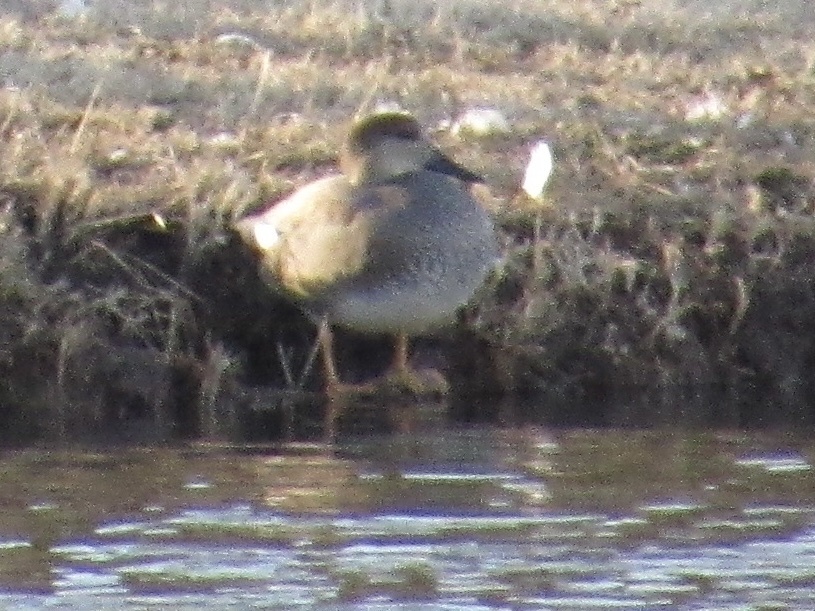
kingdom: Animalia
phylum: Chordata
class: Aves
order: Anseriformes
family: Anatidae
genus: Mareca
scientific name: Mareca strepera
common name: Gadwall
